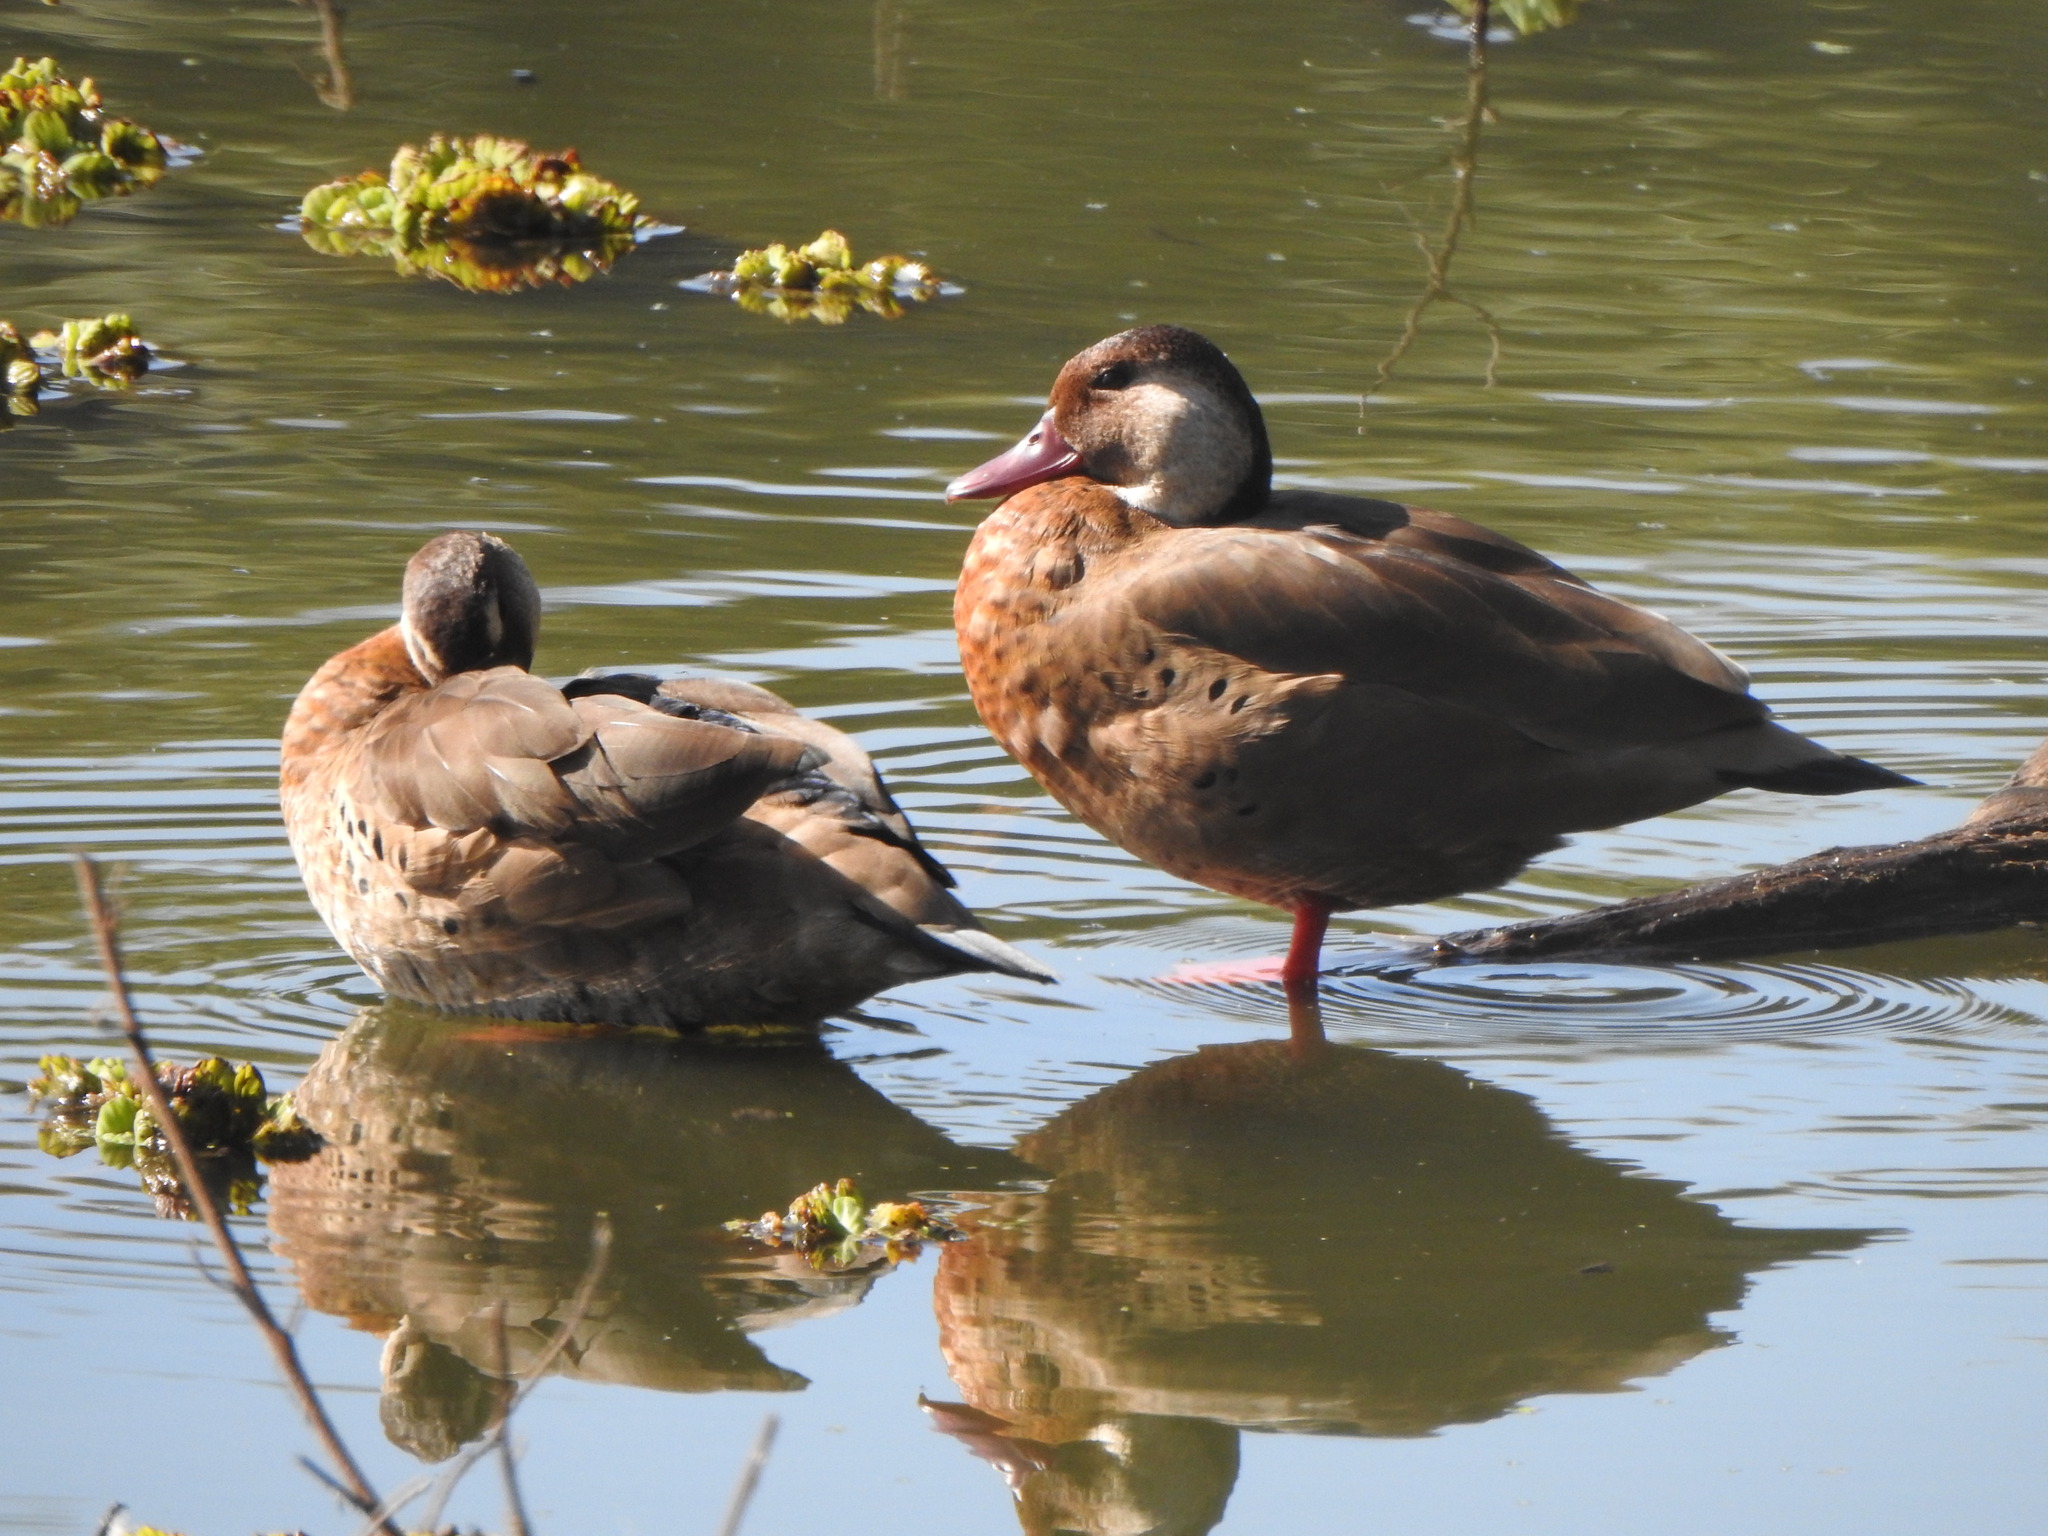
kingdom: Animalia
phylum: Chordata
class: Aves
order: Anseriformes
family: Anatidae
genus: Amazonetta
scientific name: Amazonetta brasiliensis
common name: Brazilian teal
